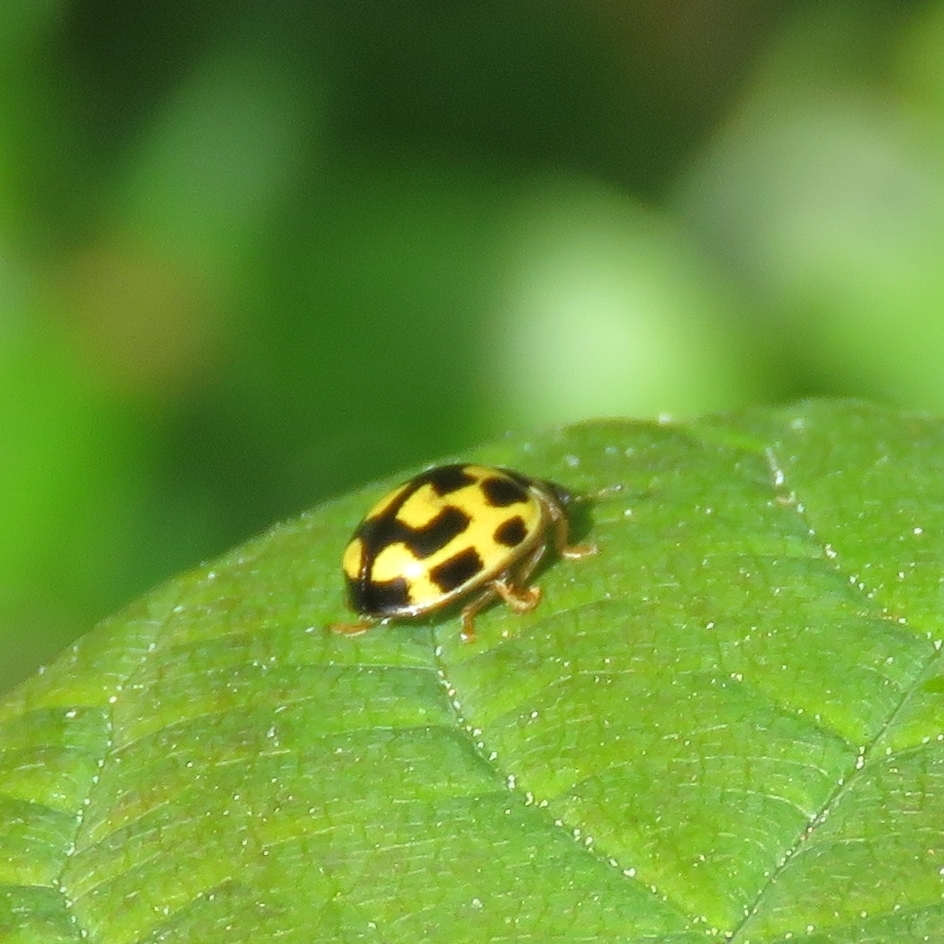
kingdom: Animalia
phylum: Arthropoda
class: Insecta
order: Coleoptera
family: Coccinellidae
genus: Propylaea
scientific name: Propylaea quatuordecimpunctata
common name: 14-spotted ladybird beetle
